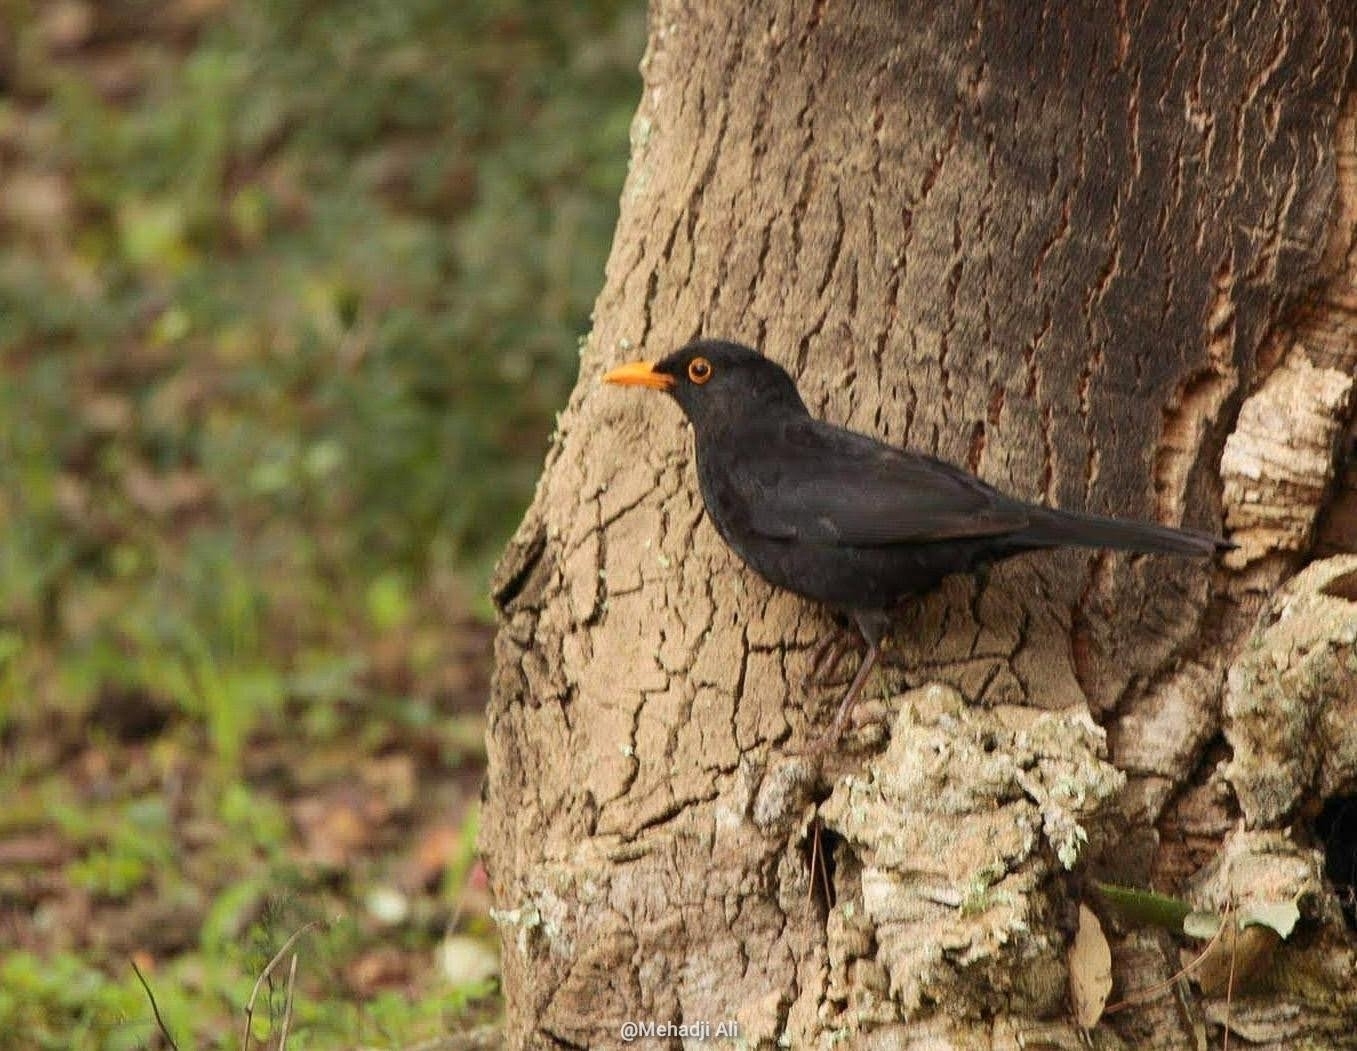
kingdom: Animalia
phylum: Chordata
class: Aves
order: Passeriformes
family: Turdidae
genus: Turdus
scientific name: Turdus merula
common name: Common blackbird
